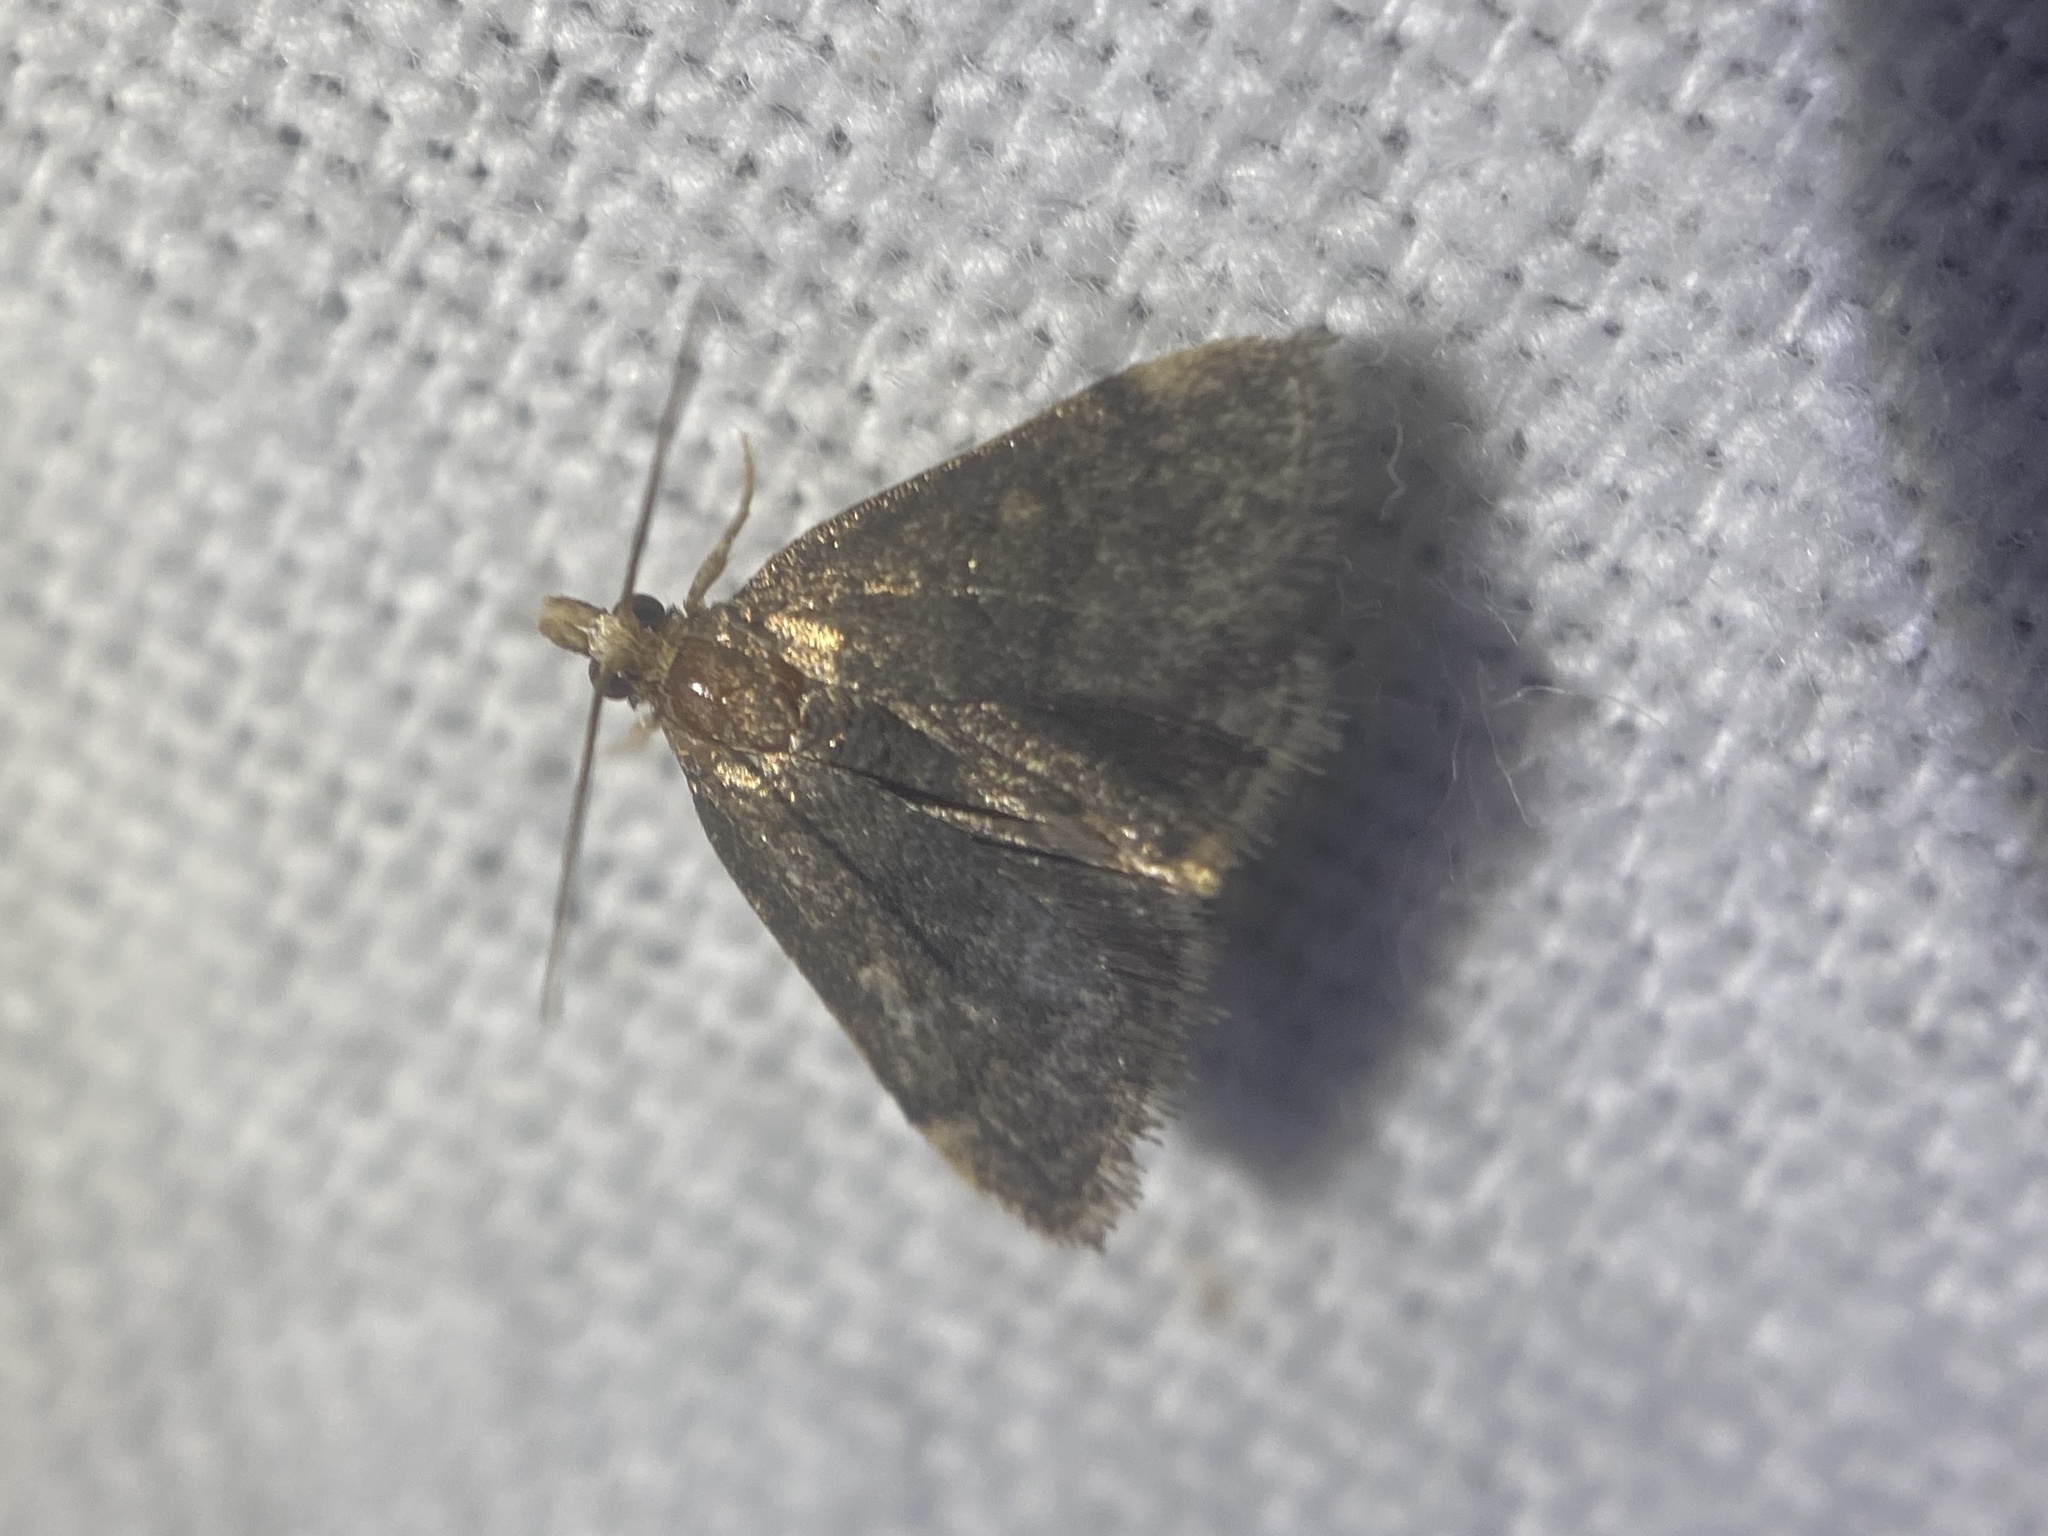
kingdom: Animalia
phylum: Arthropoda
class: Insecta
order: Lepidoptera
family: Crambidae
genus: Pyrausta
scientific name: Pyrausta merrickalis
